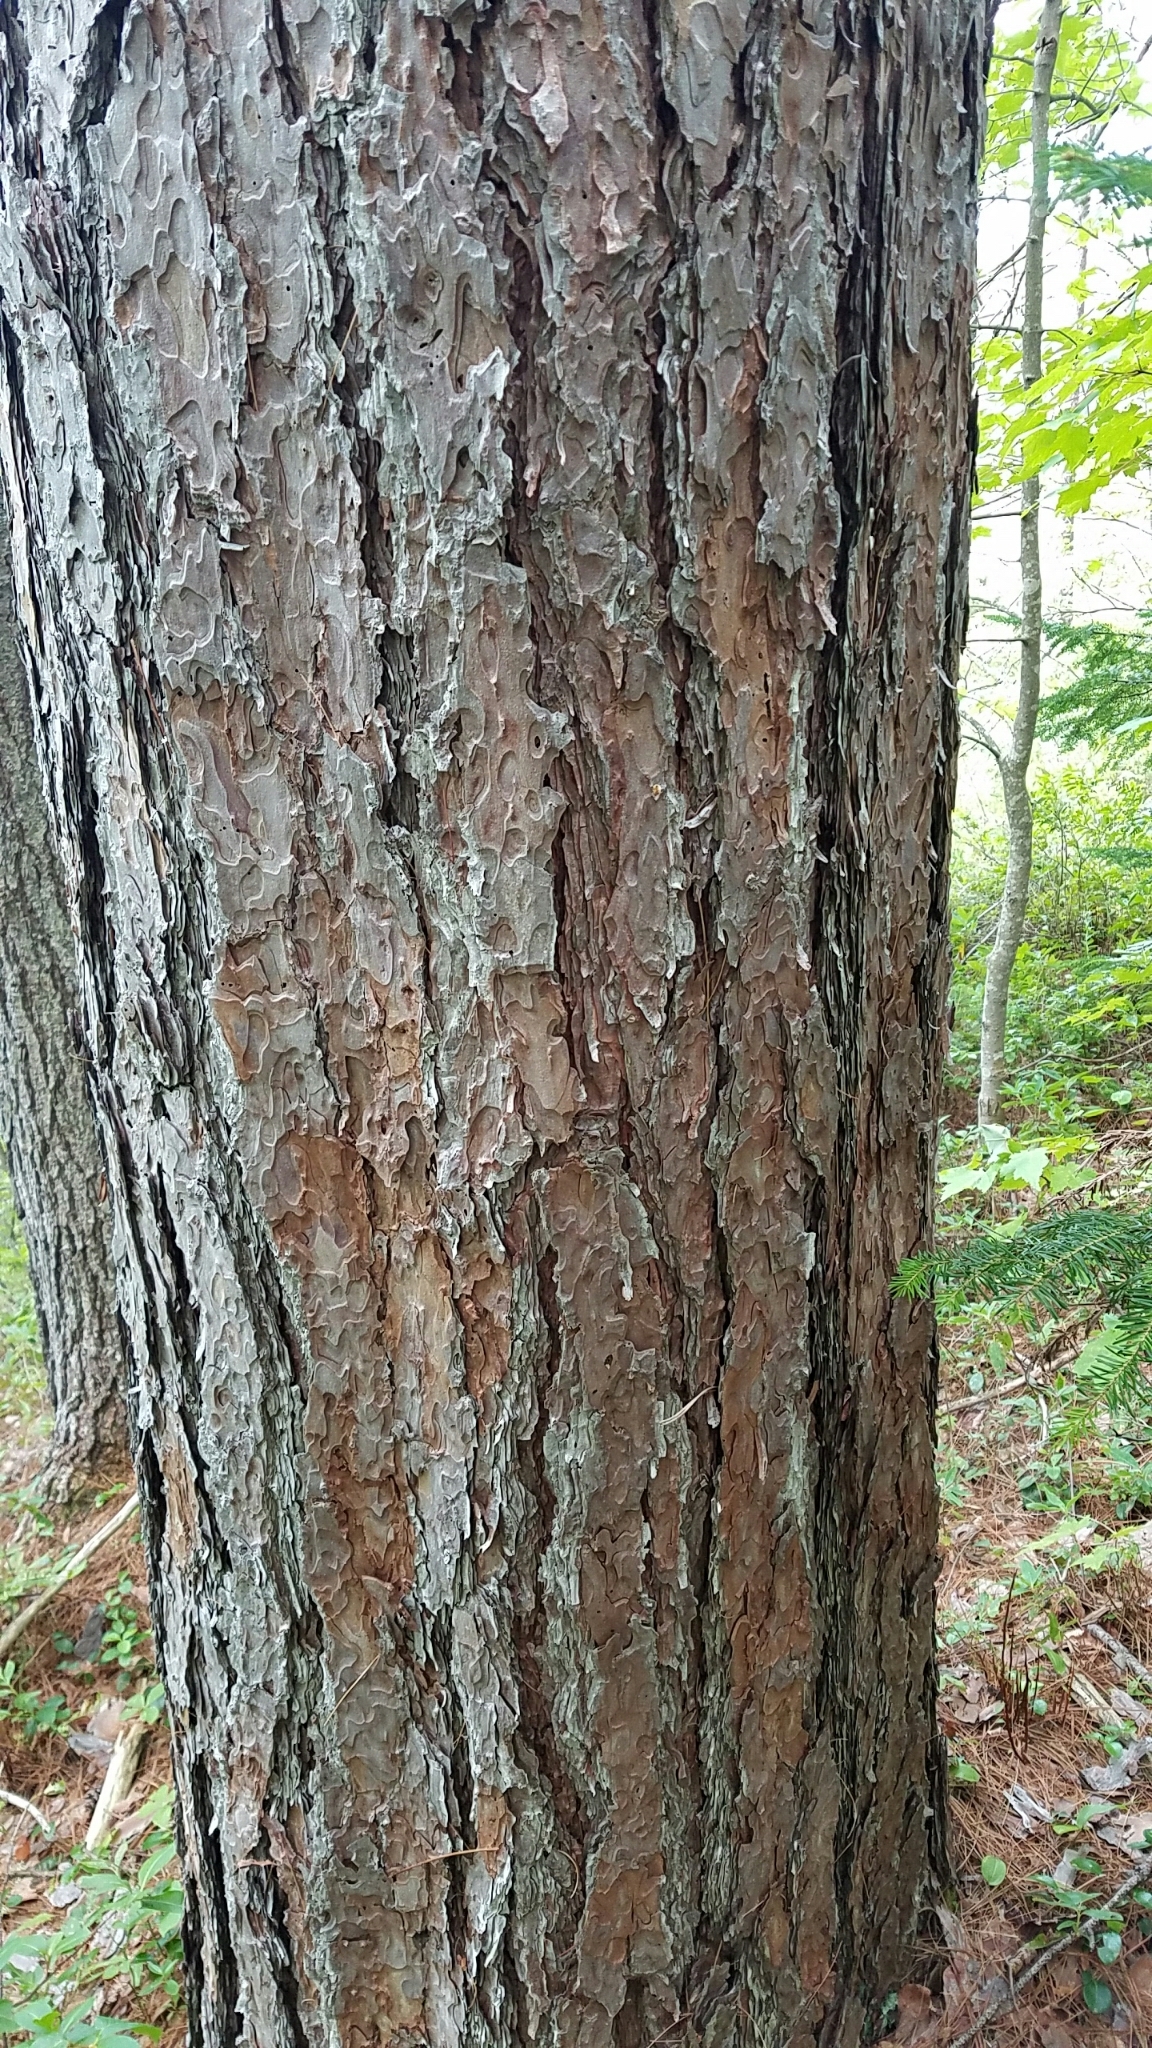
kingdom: Plantae
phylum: Tracheophyta
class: Pinopsida
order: Pinales
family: Pinaceae
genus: Pinus
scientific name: Pinus resinosa
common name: Norway pine
